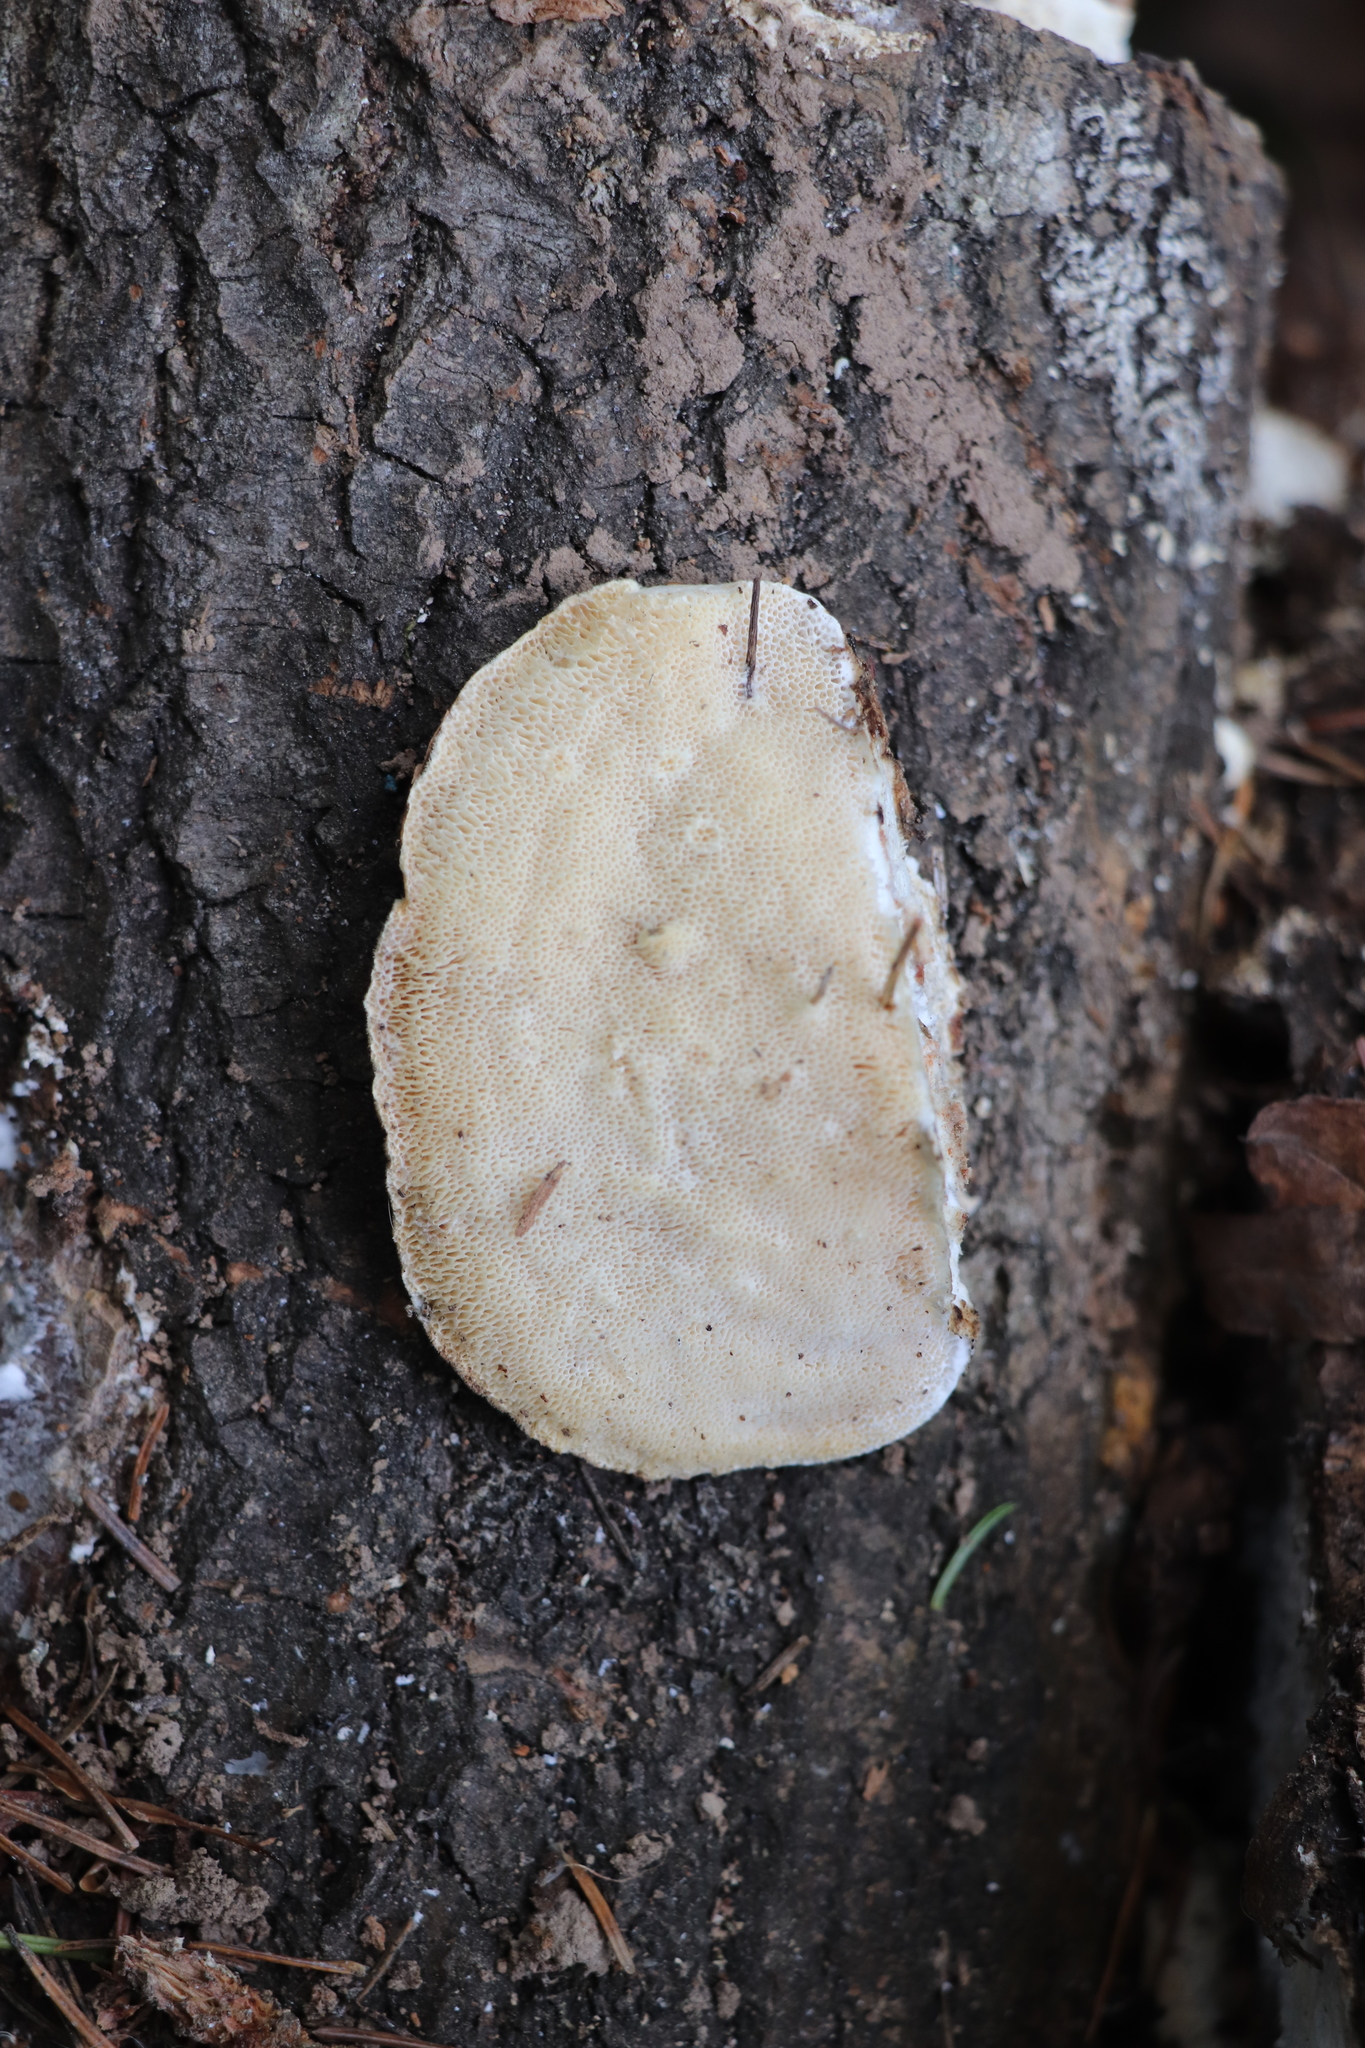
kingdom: Fungi
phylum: Basidiomycota
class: Agaricomycetes
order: Polyporales
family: Polyporaceae
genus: Trametes
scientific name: Trametes suaveolens
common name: Fragrant bracket
